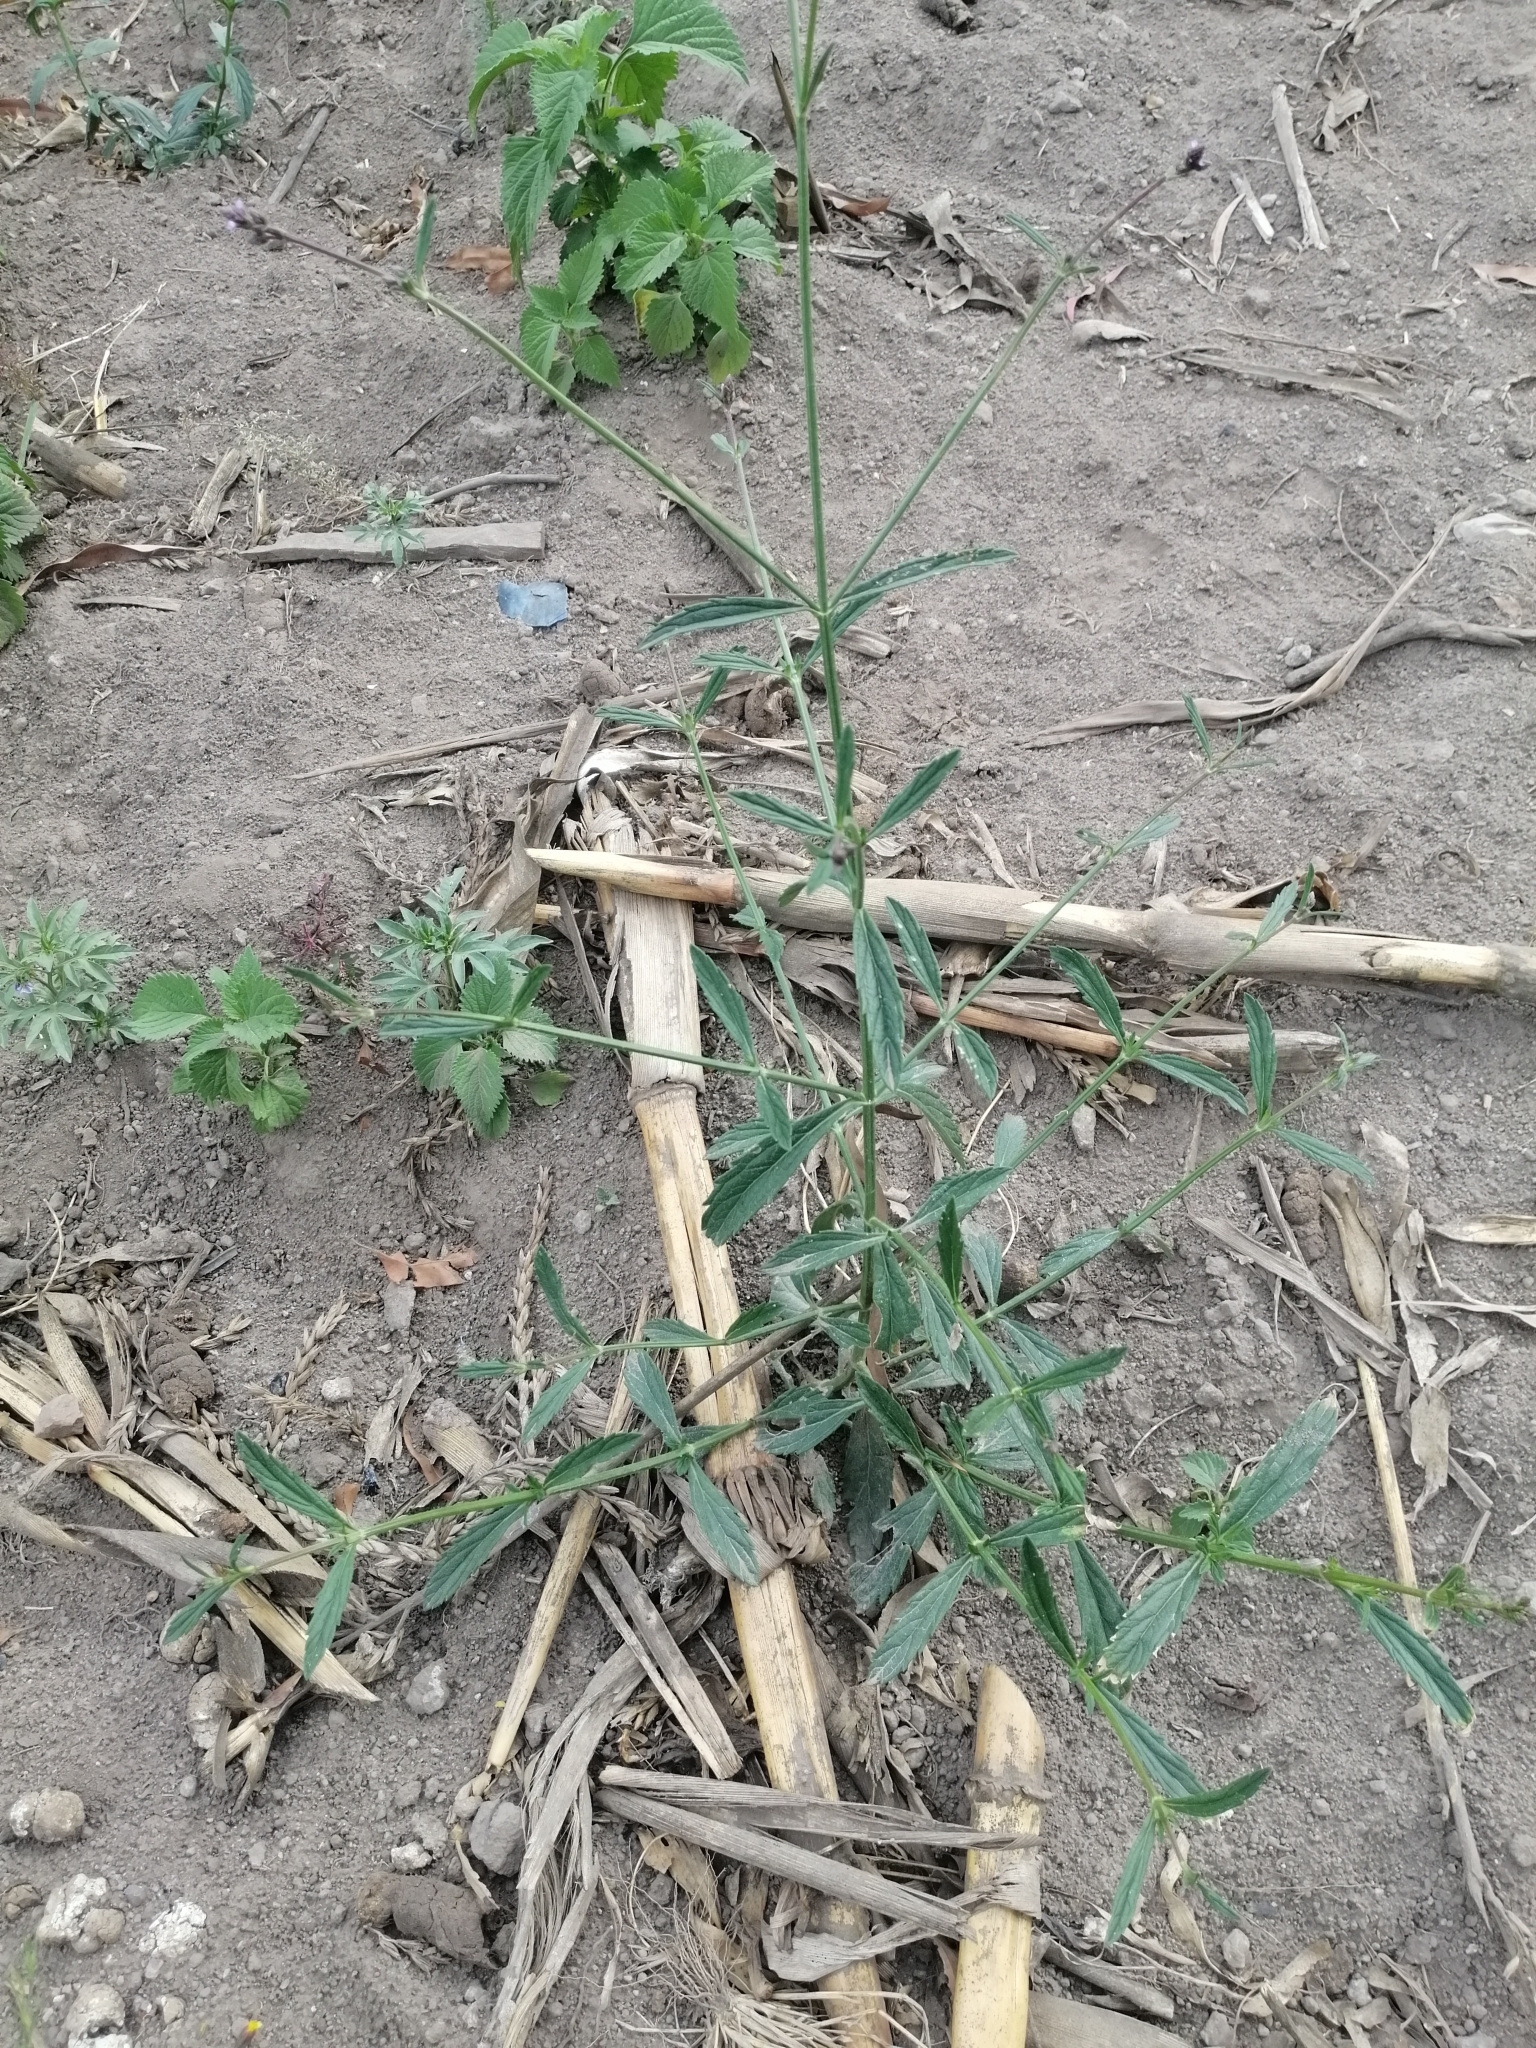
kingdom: Plantae
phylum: Tracheophyta
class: Magnoliopsida
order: Lamiales
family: Verbenaceae
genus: Verbena
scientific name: Verbena litoralis
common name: Seashore vervain
